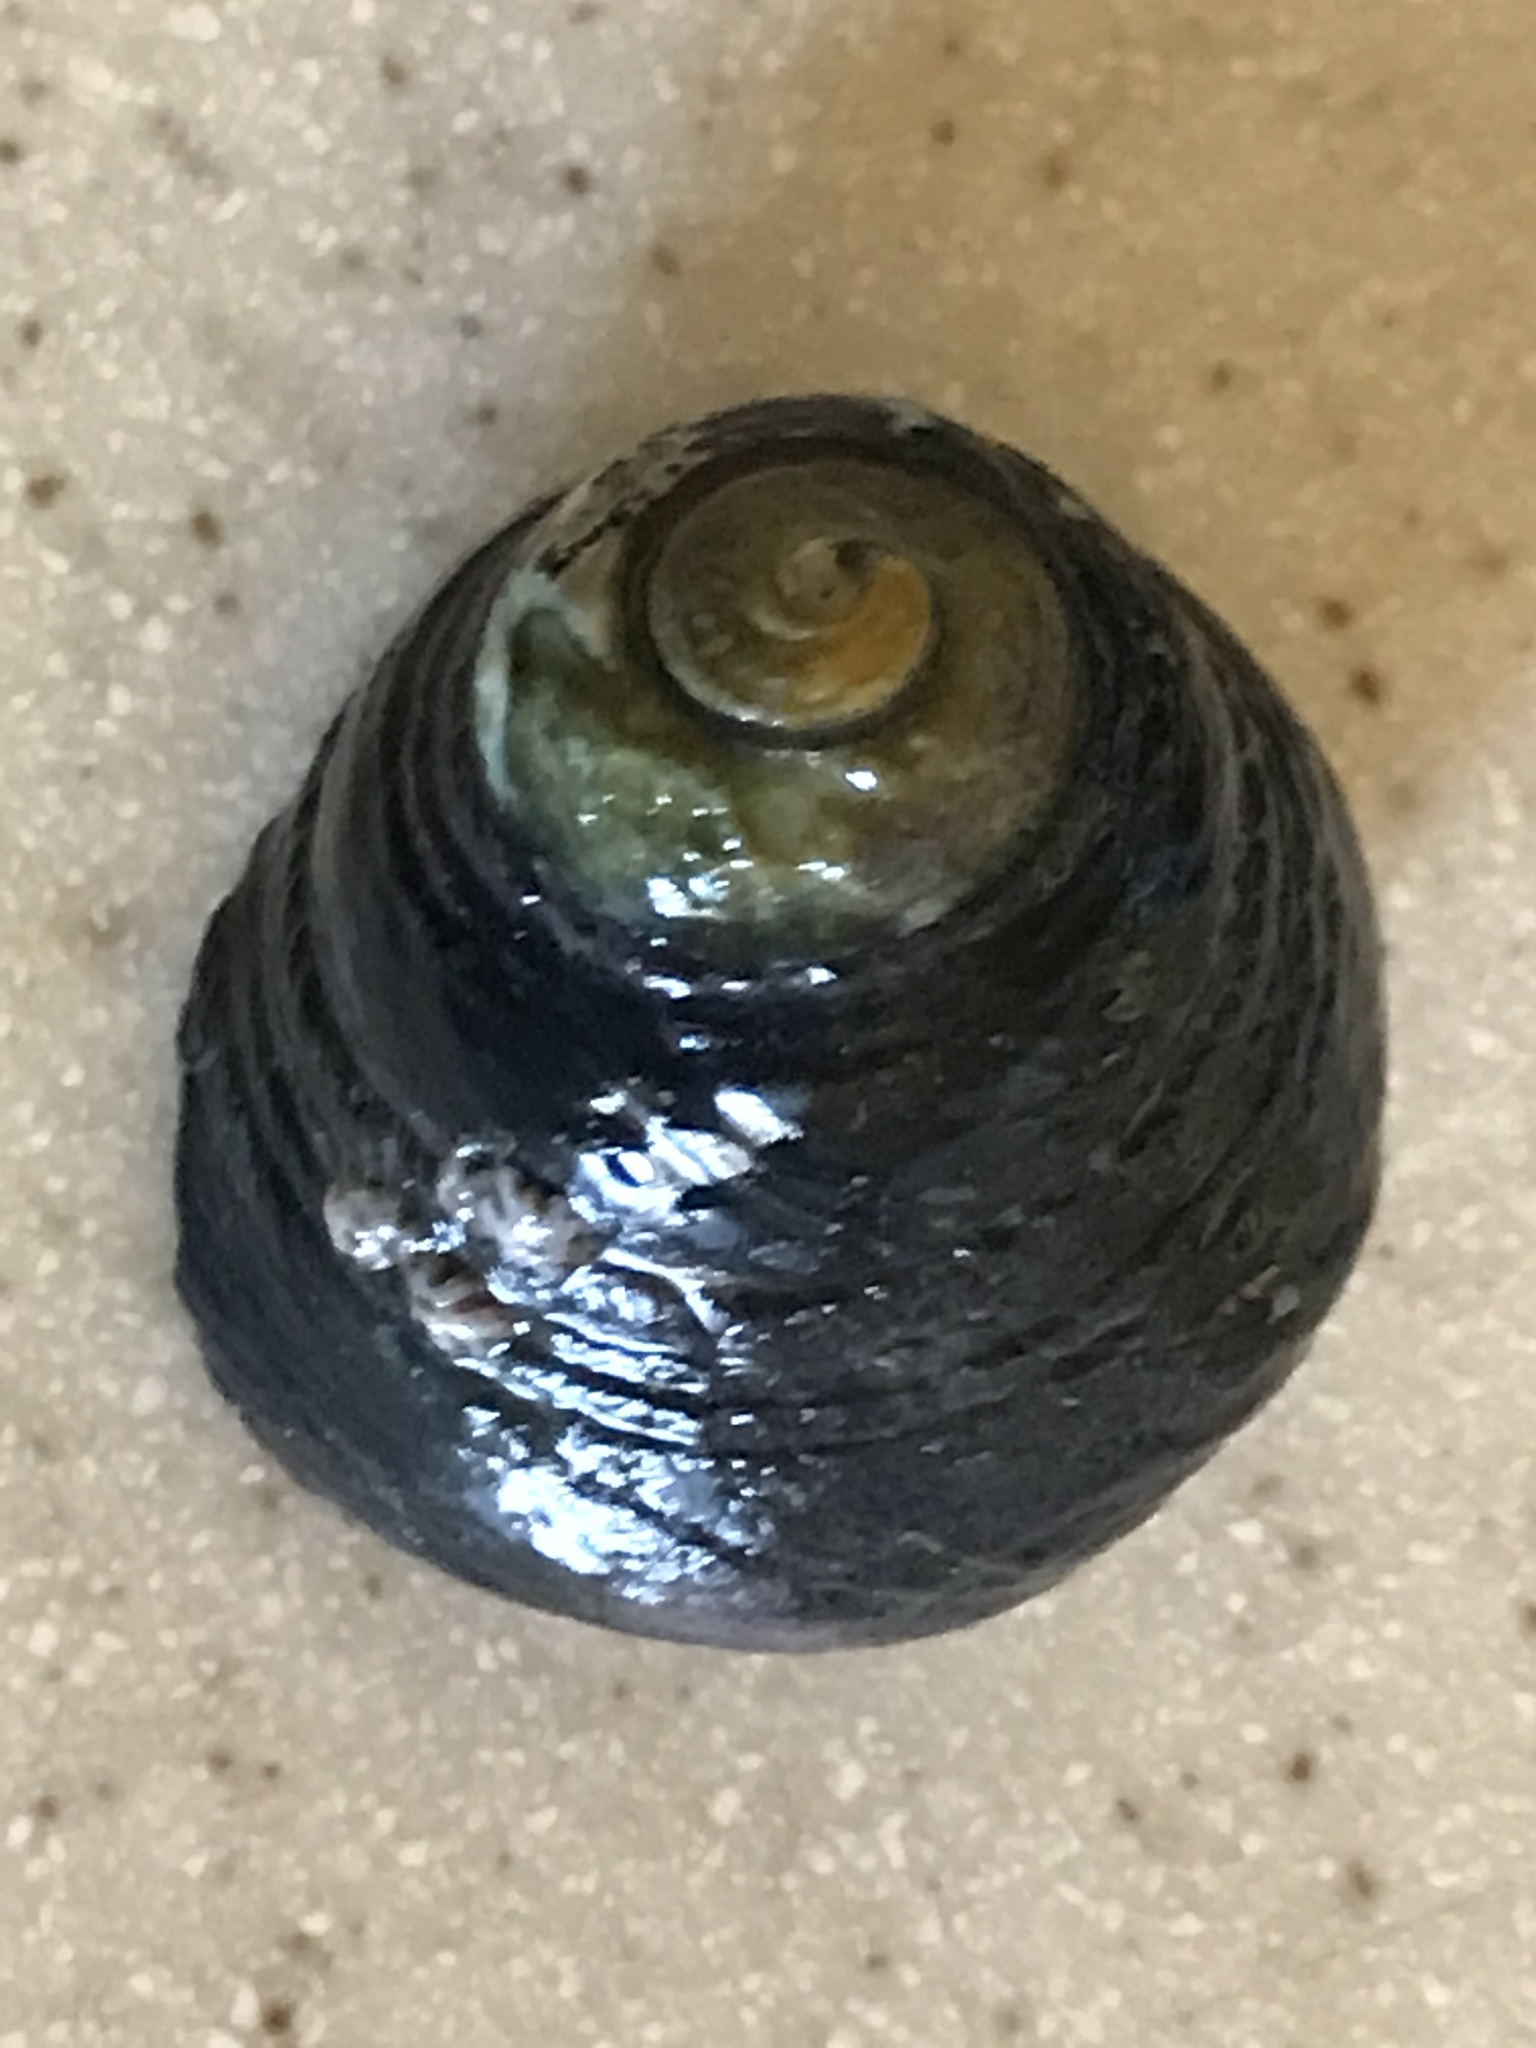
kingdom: Animalia
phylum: Mollusca
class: Gastropoda
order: Trochida
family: Tegulidae
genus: Tegula
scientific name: Tegula funebralis
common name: Black tegula
